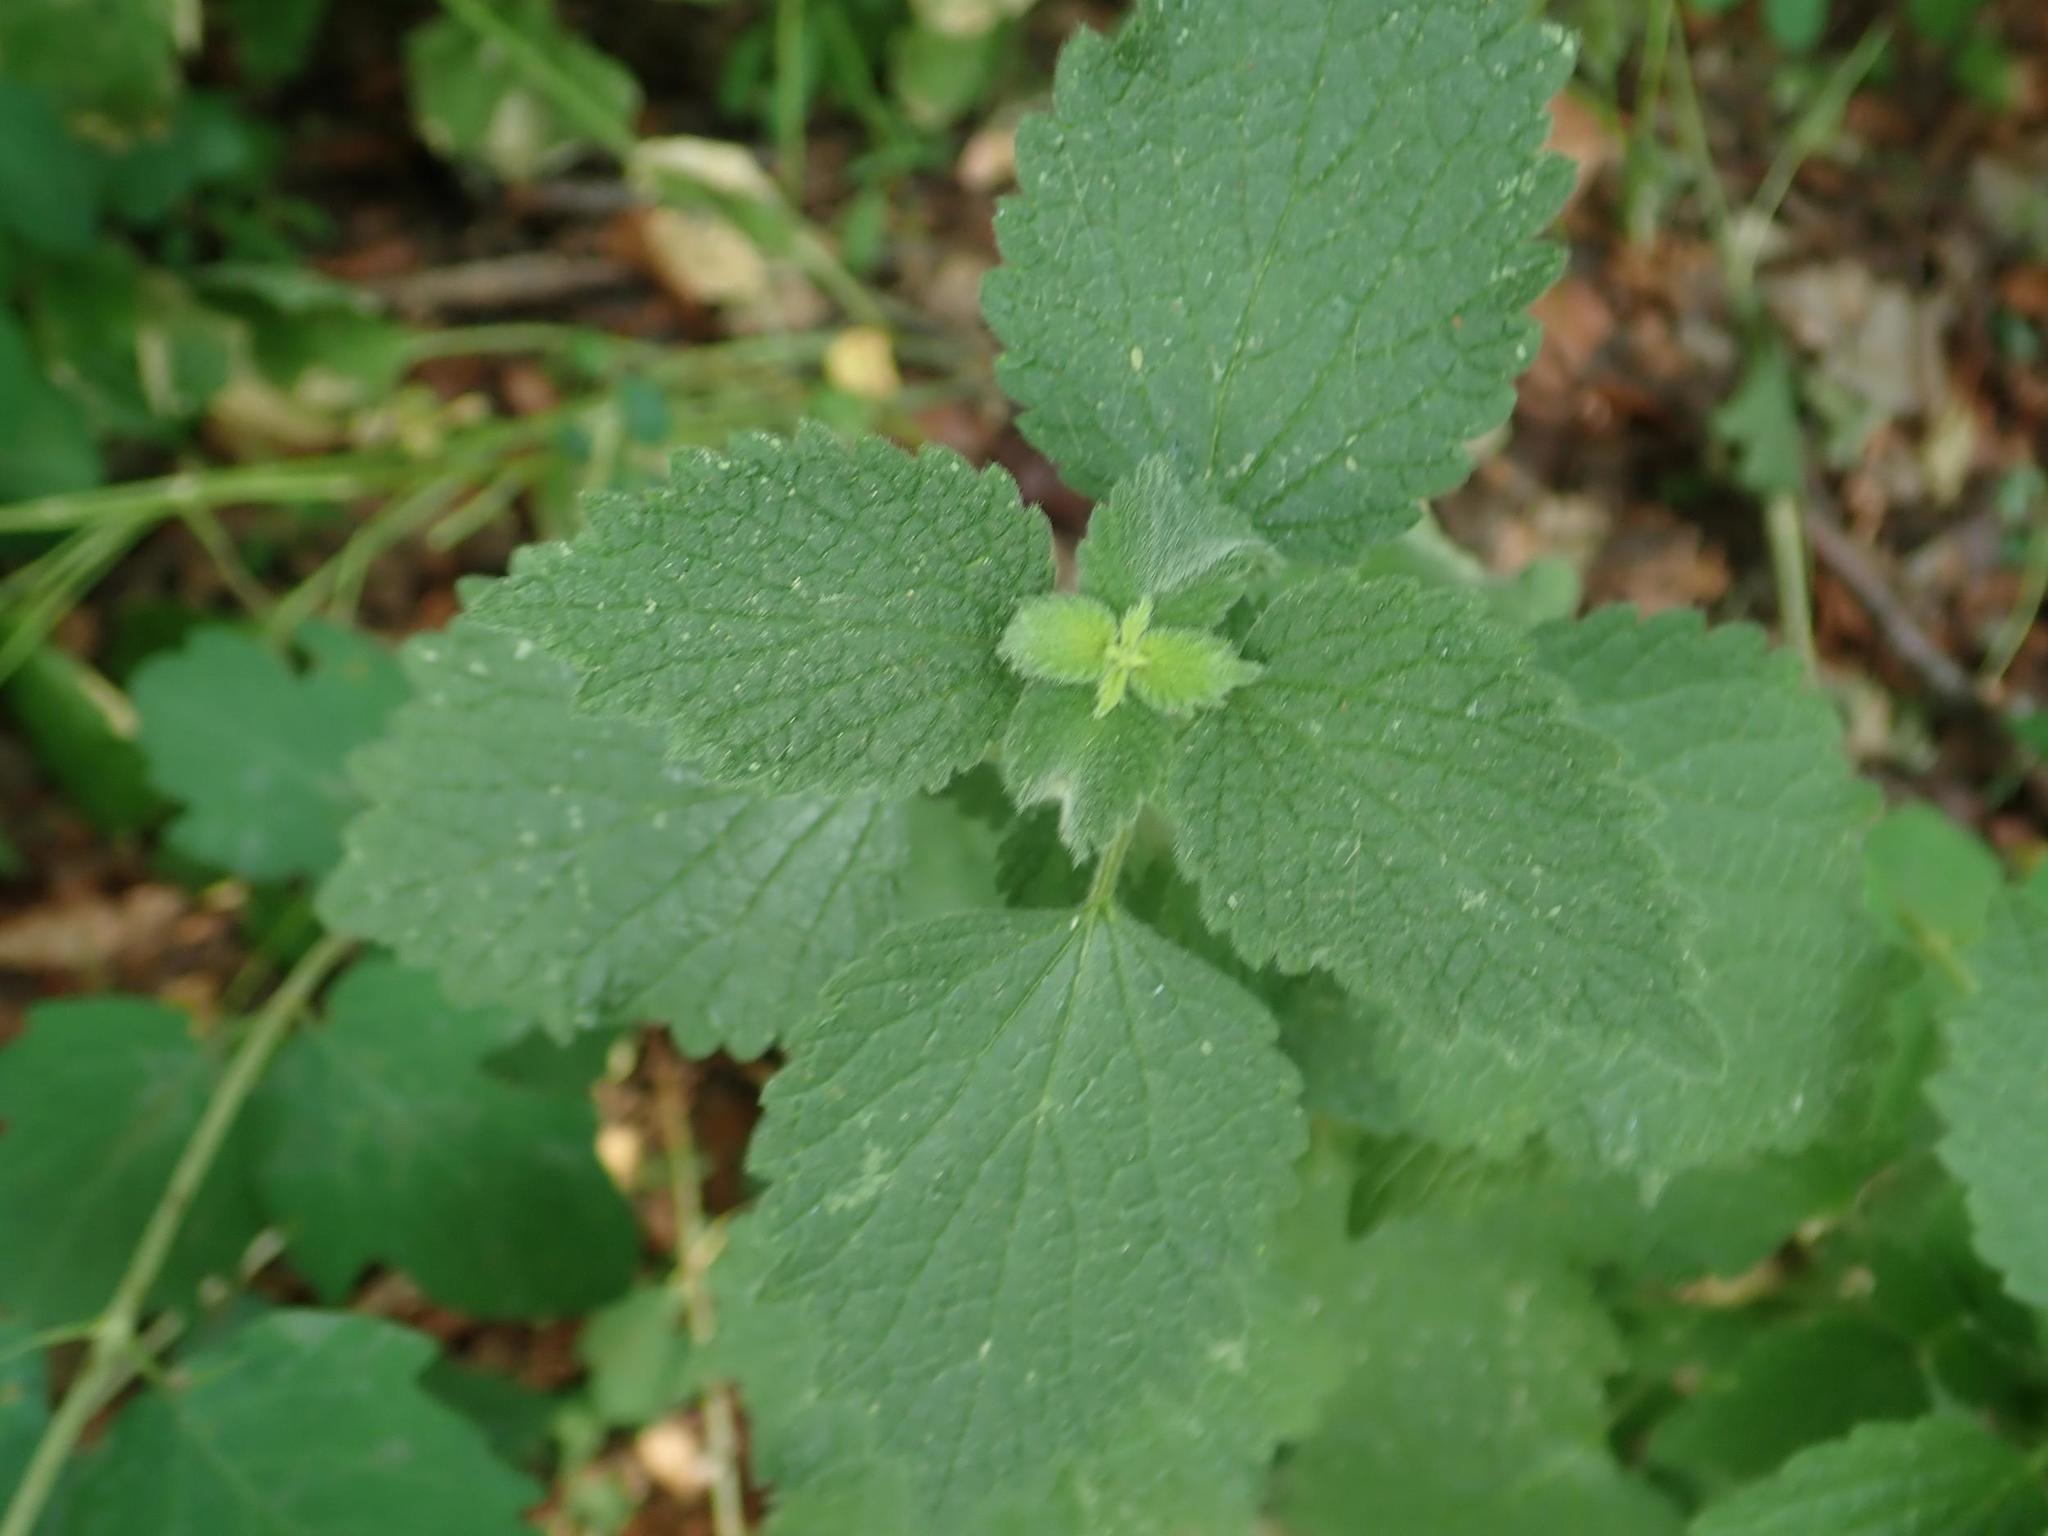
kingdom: Plantae
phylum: Tracheophyta
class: Magnoliopsida
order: Lamiales
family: Lamiaceae
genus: Ballota
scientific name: Ballota nigra
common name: Black horehound
